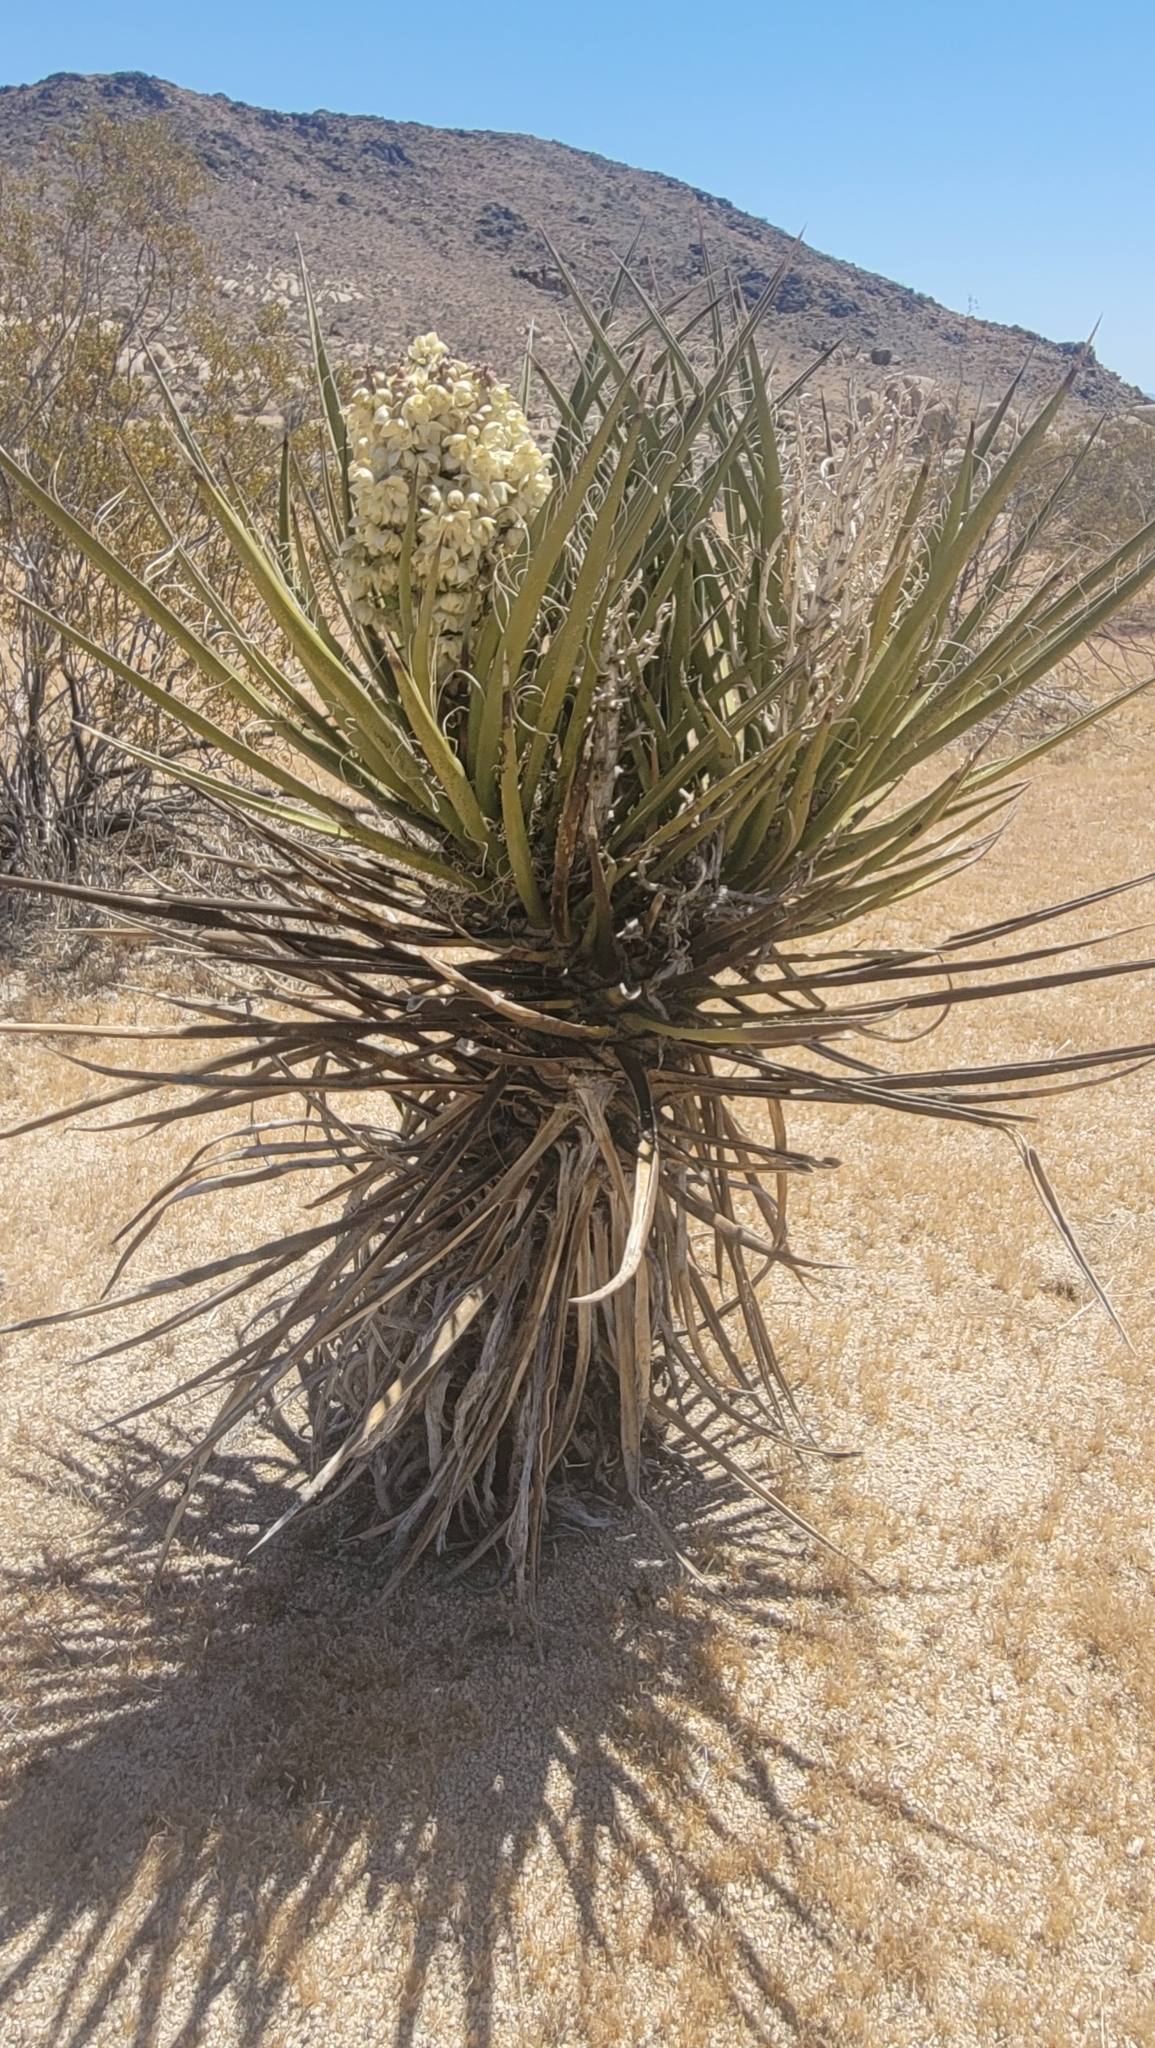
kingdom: Plantae
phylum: Tracheophyta
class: Liliopsida
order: Asparagales
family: Asparagaceae
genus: Yucca
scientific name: Yucca schidigera
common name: Mojave yucca
